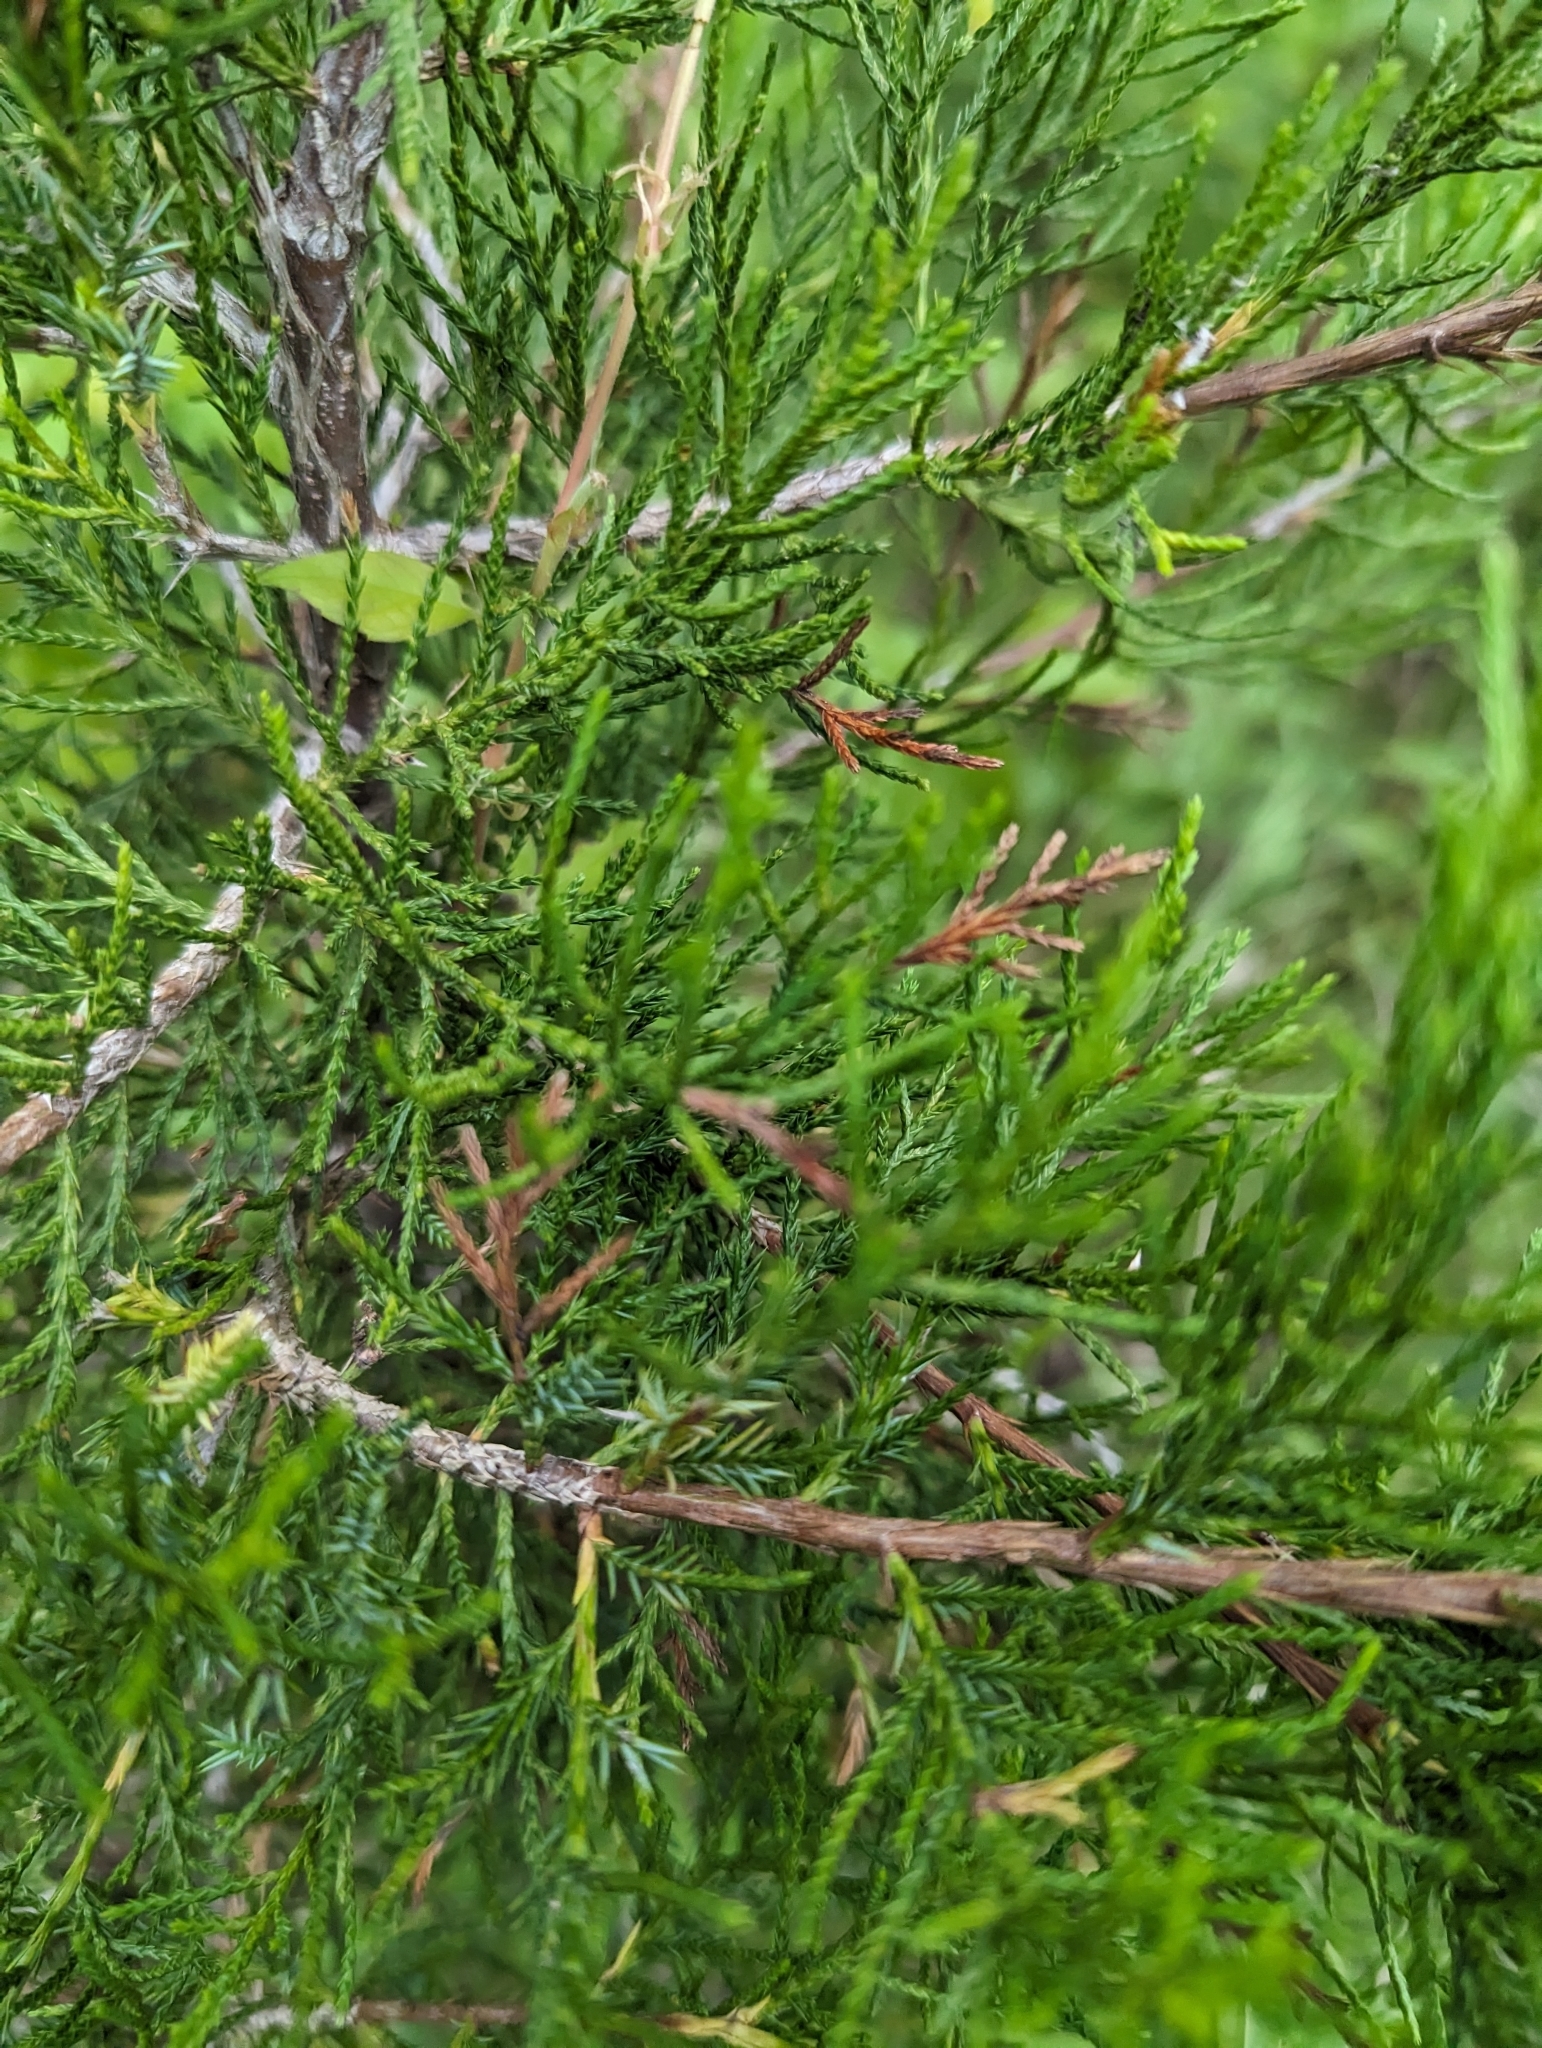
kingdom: Plantae
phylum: Tracheophyta
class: Pinopsida
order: Pinales
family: Cupressaceae
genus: Juniperus
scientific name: Juniperus virginiana
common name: Red juniper
